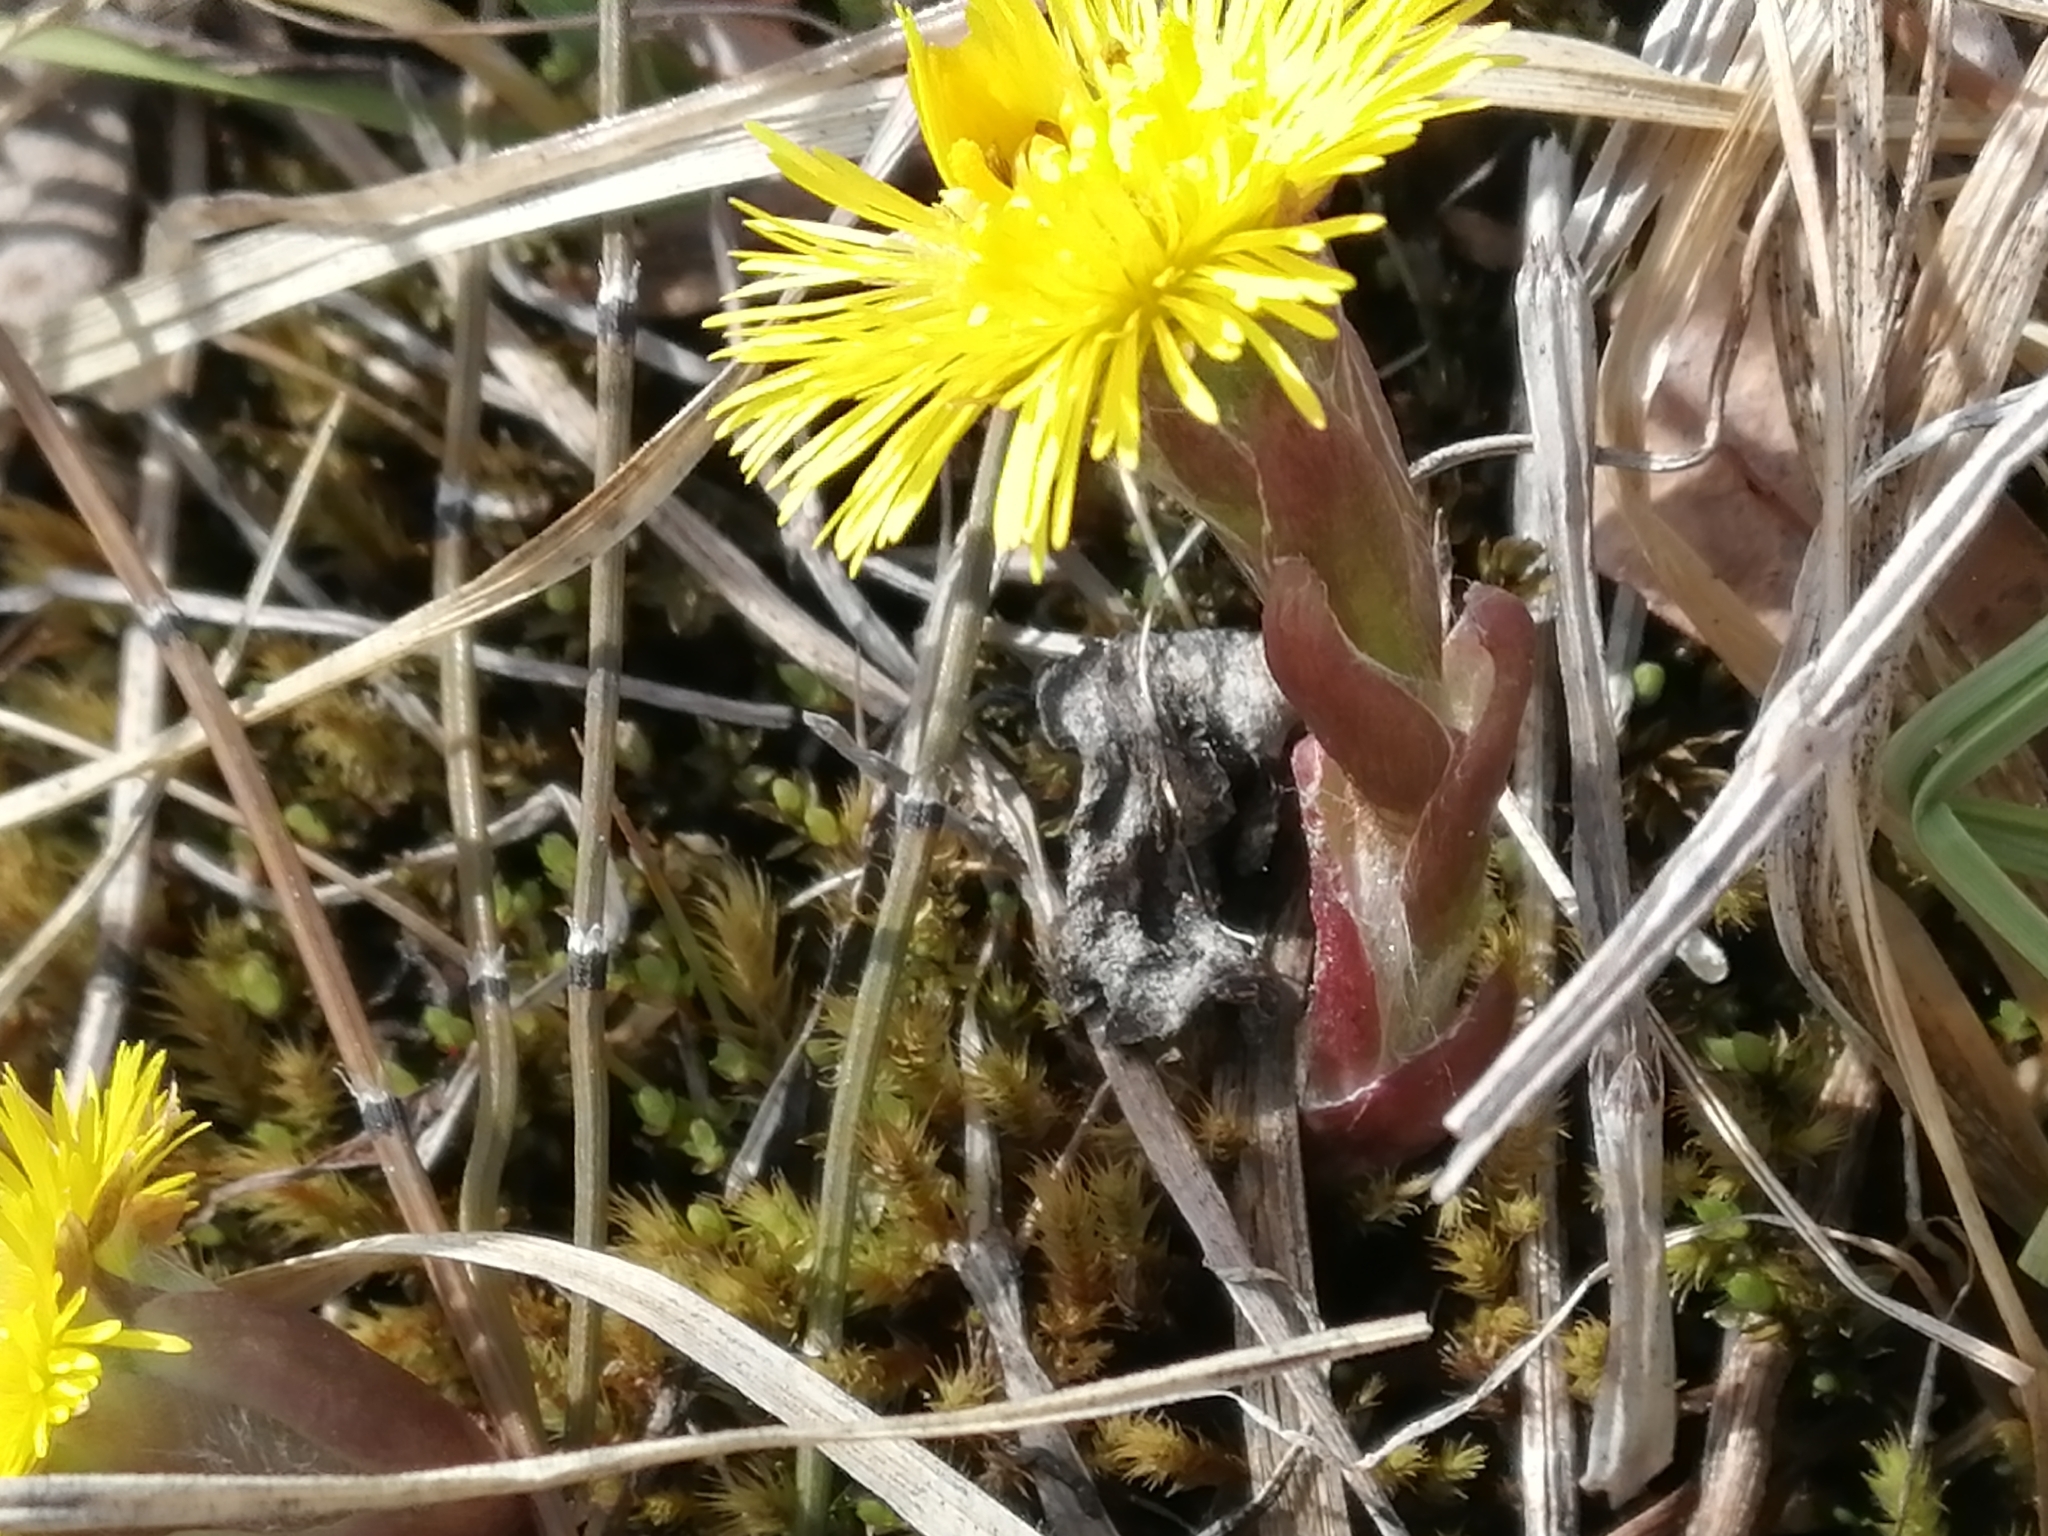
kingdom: Plantae
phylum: Tracheophyta
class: Magnoliopsida
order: Asterales
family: Asteraceae
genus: Tussilago
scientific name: Tussilago farfara
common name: Coltsfoot
